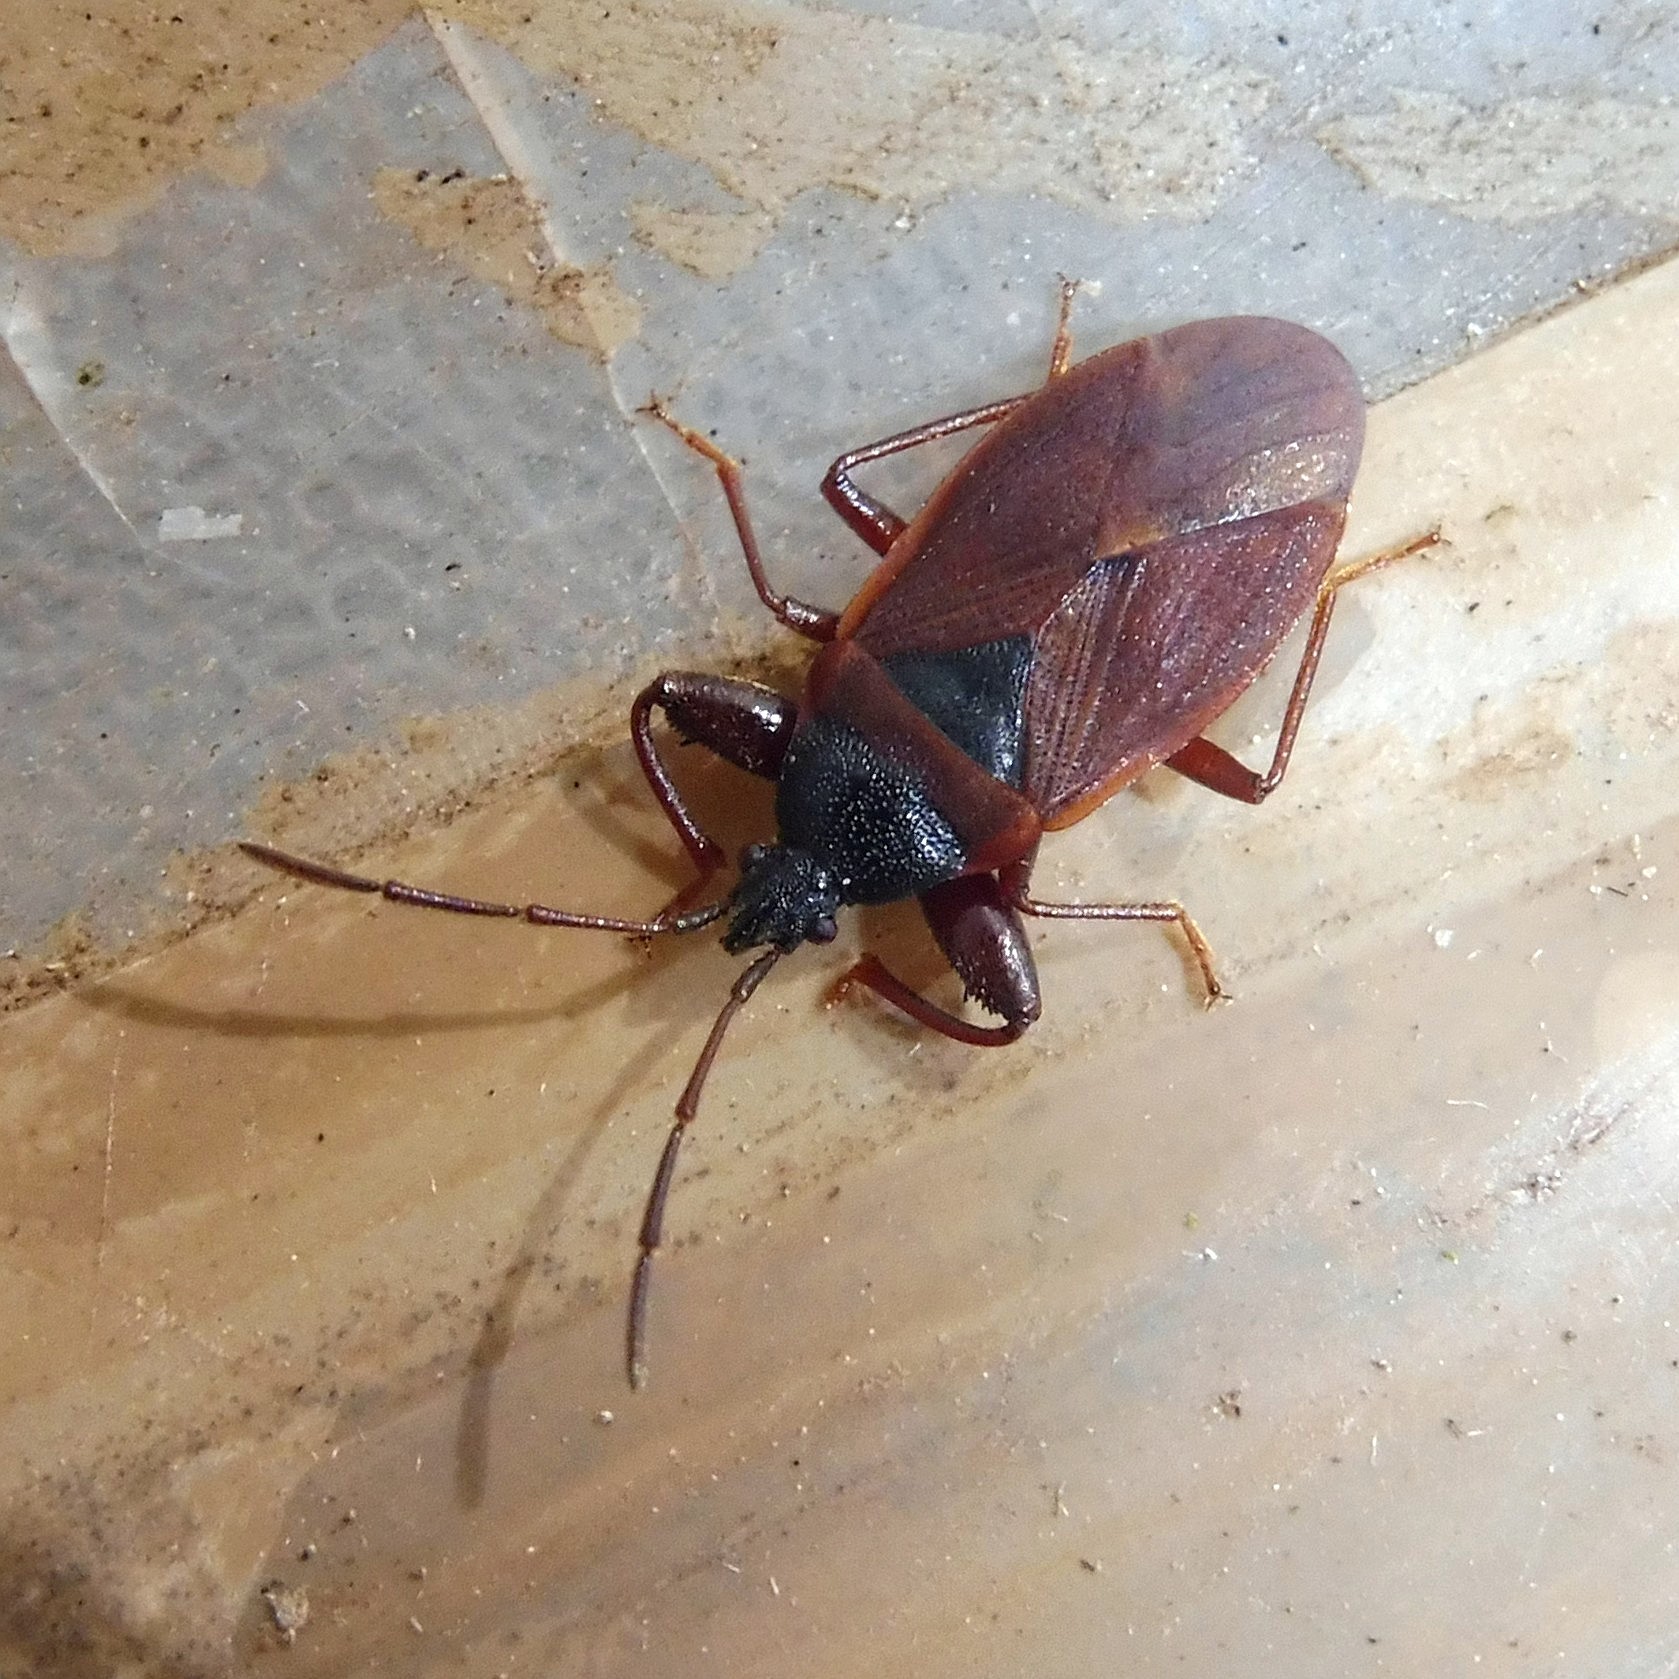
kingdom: Animalia
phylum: Arthropoda
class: Insecta
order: Hemiptera
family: Rhyparochromidae
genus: Gastrodes
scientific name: Gastrodes grossipes
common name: Pine cone bug
